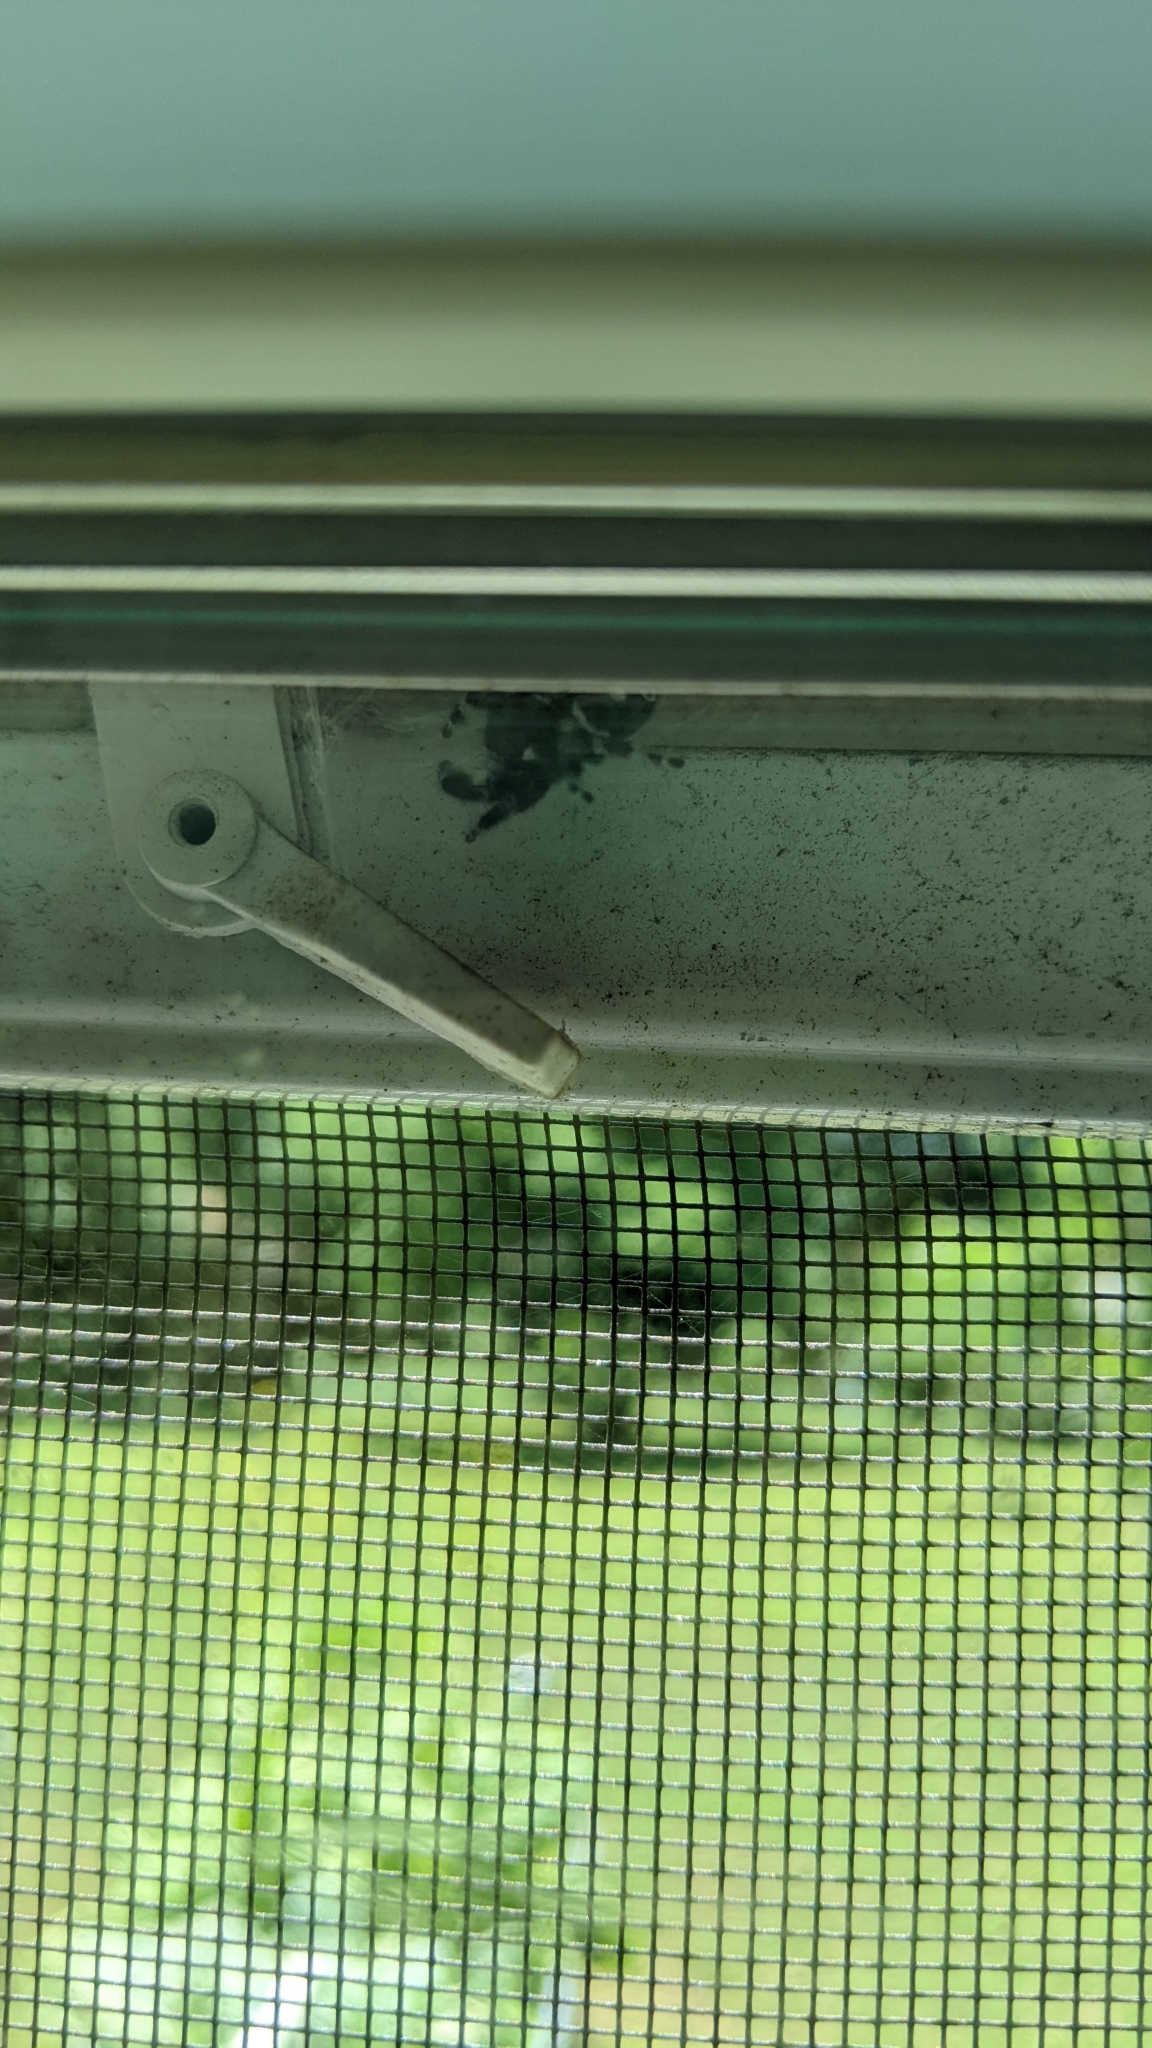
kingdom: Animalia
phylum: Arthropoda
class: Arachnida
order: Araneae
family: Salticidae
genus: Phidippus
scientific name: Phidippus audax
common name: Bold jumper
